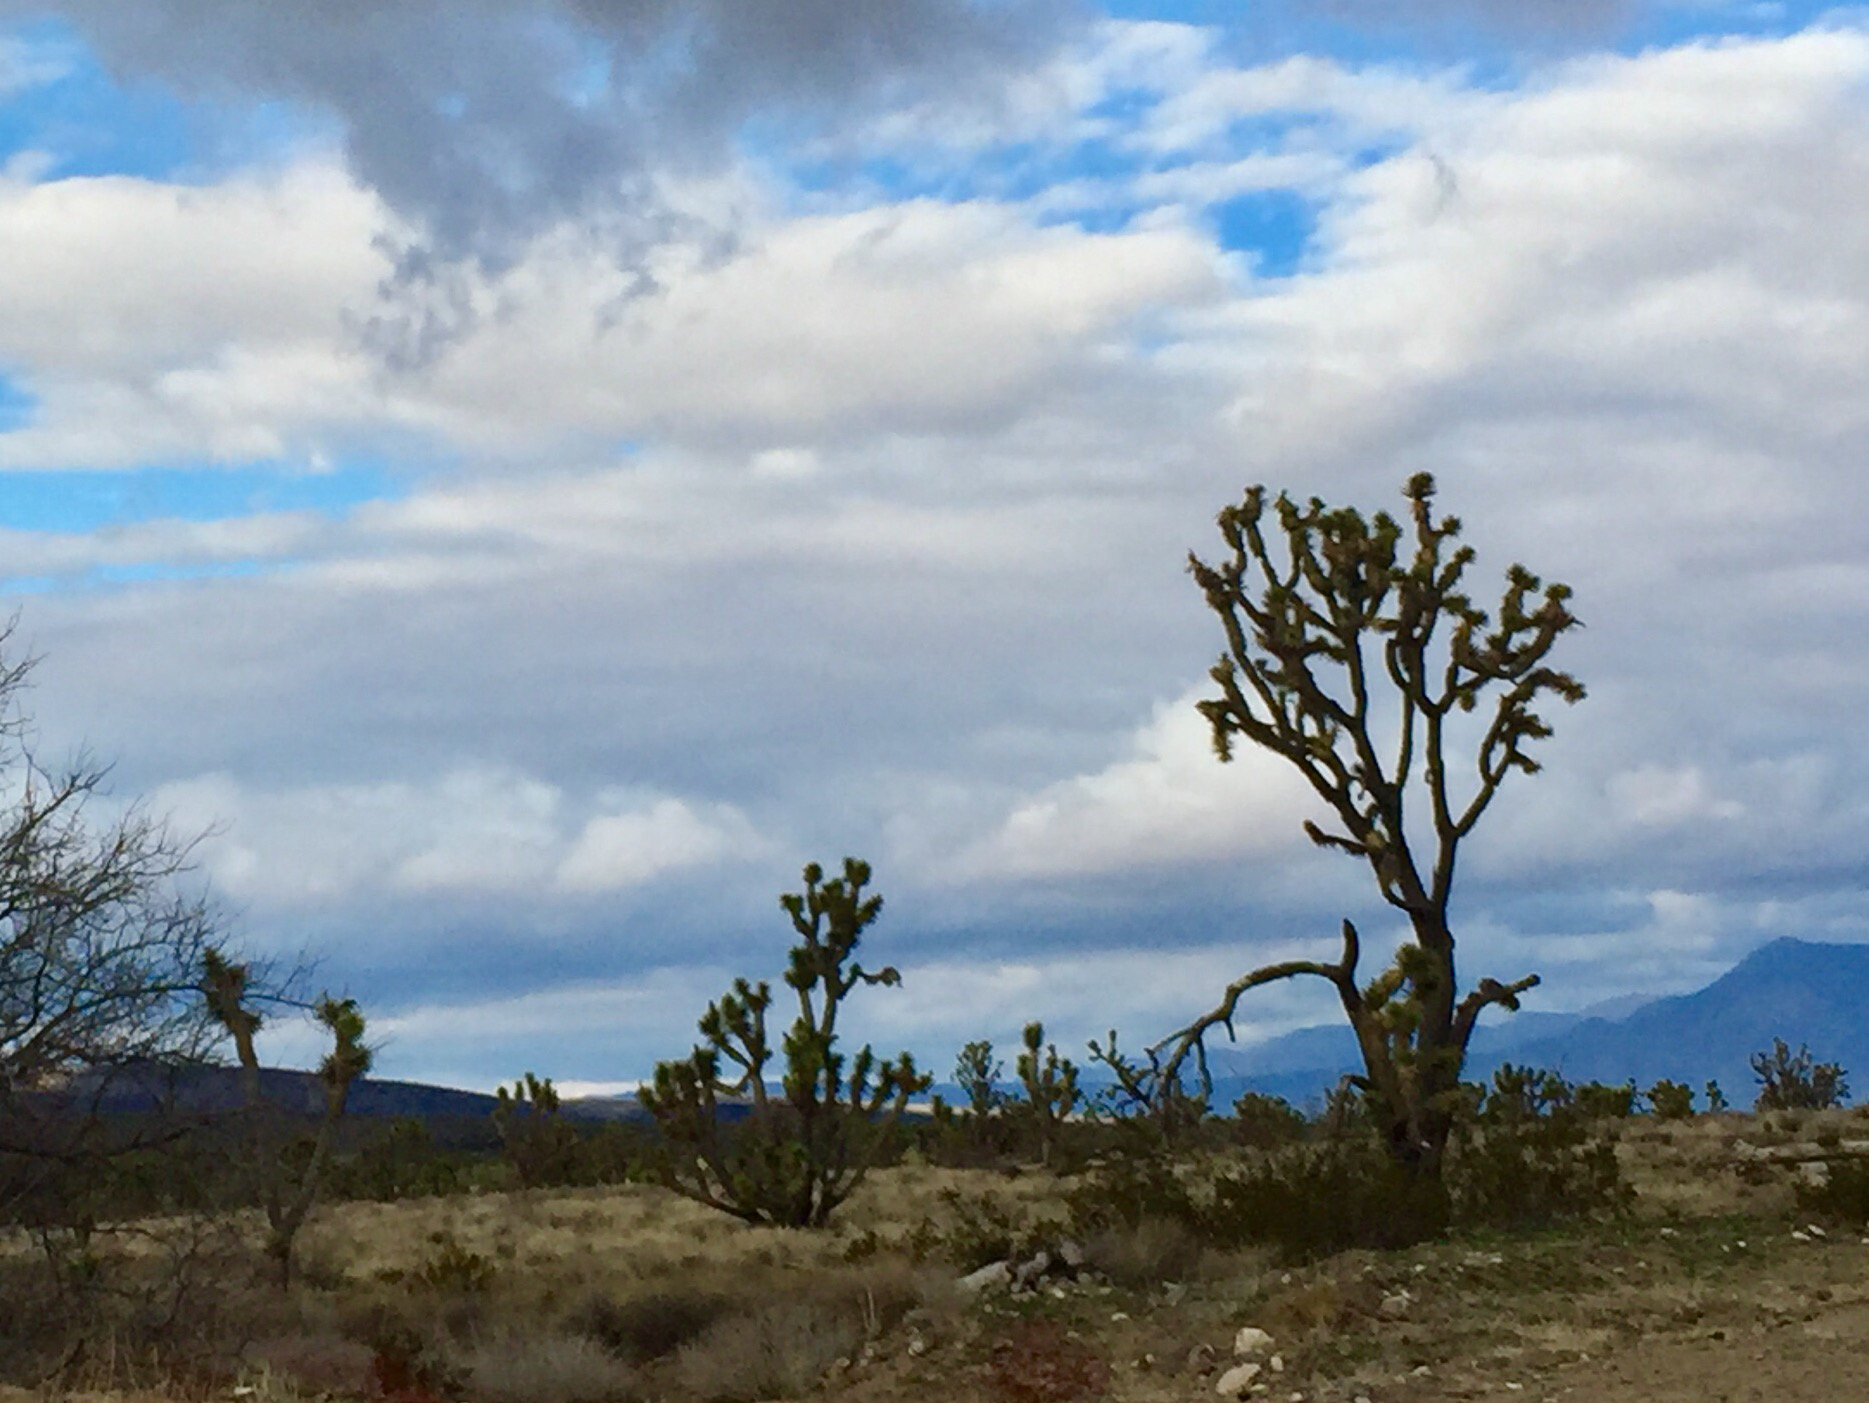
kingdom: Plantae
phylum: Tracheophyta
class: Liliopsida
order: Asparagales
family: Asparagaceae
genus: Yucca
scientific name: Yucca brevifolia
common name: Joshua tree
